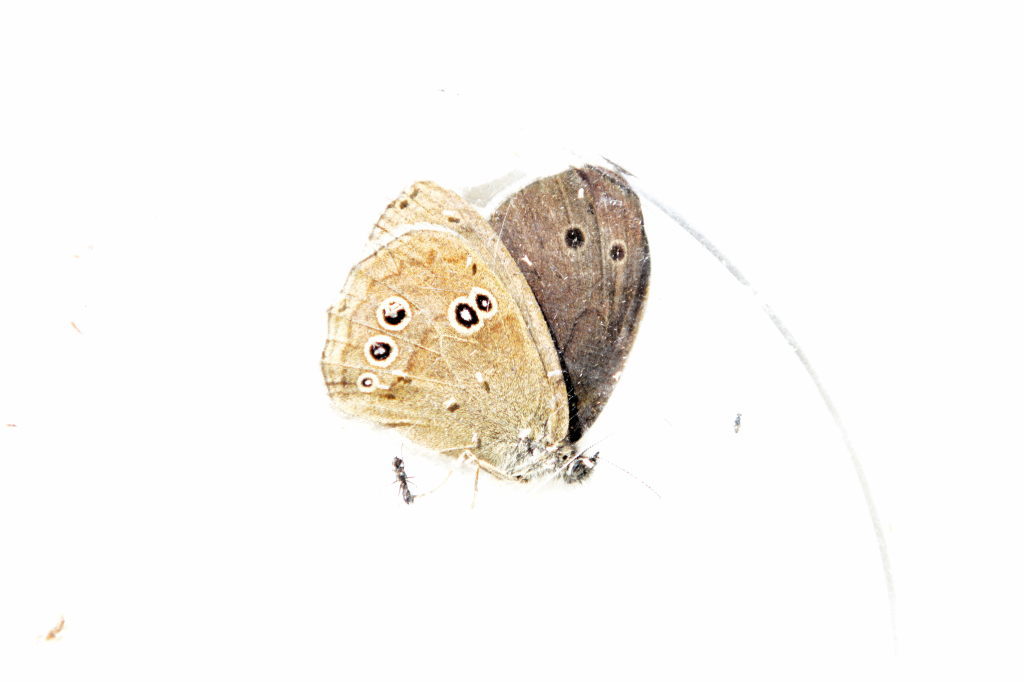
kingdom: Animalia
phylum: Arthropoda
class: Insecta
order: Lepidoptera
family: Nymphalidae
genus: Aphantopus
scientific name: Aphantopus hyperantus
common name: Ringlet
